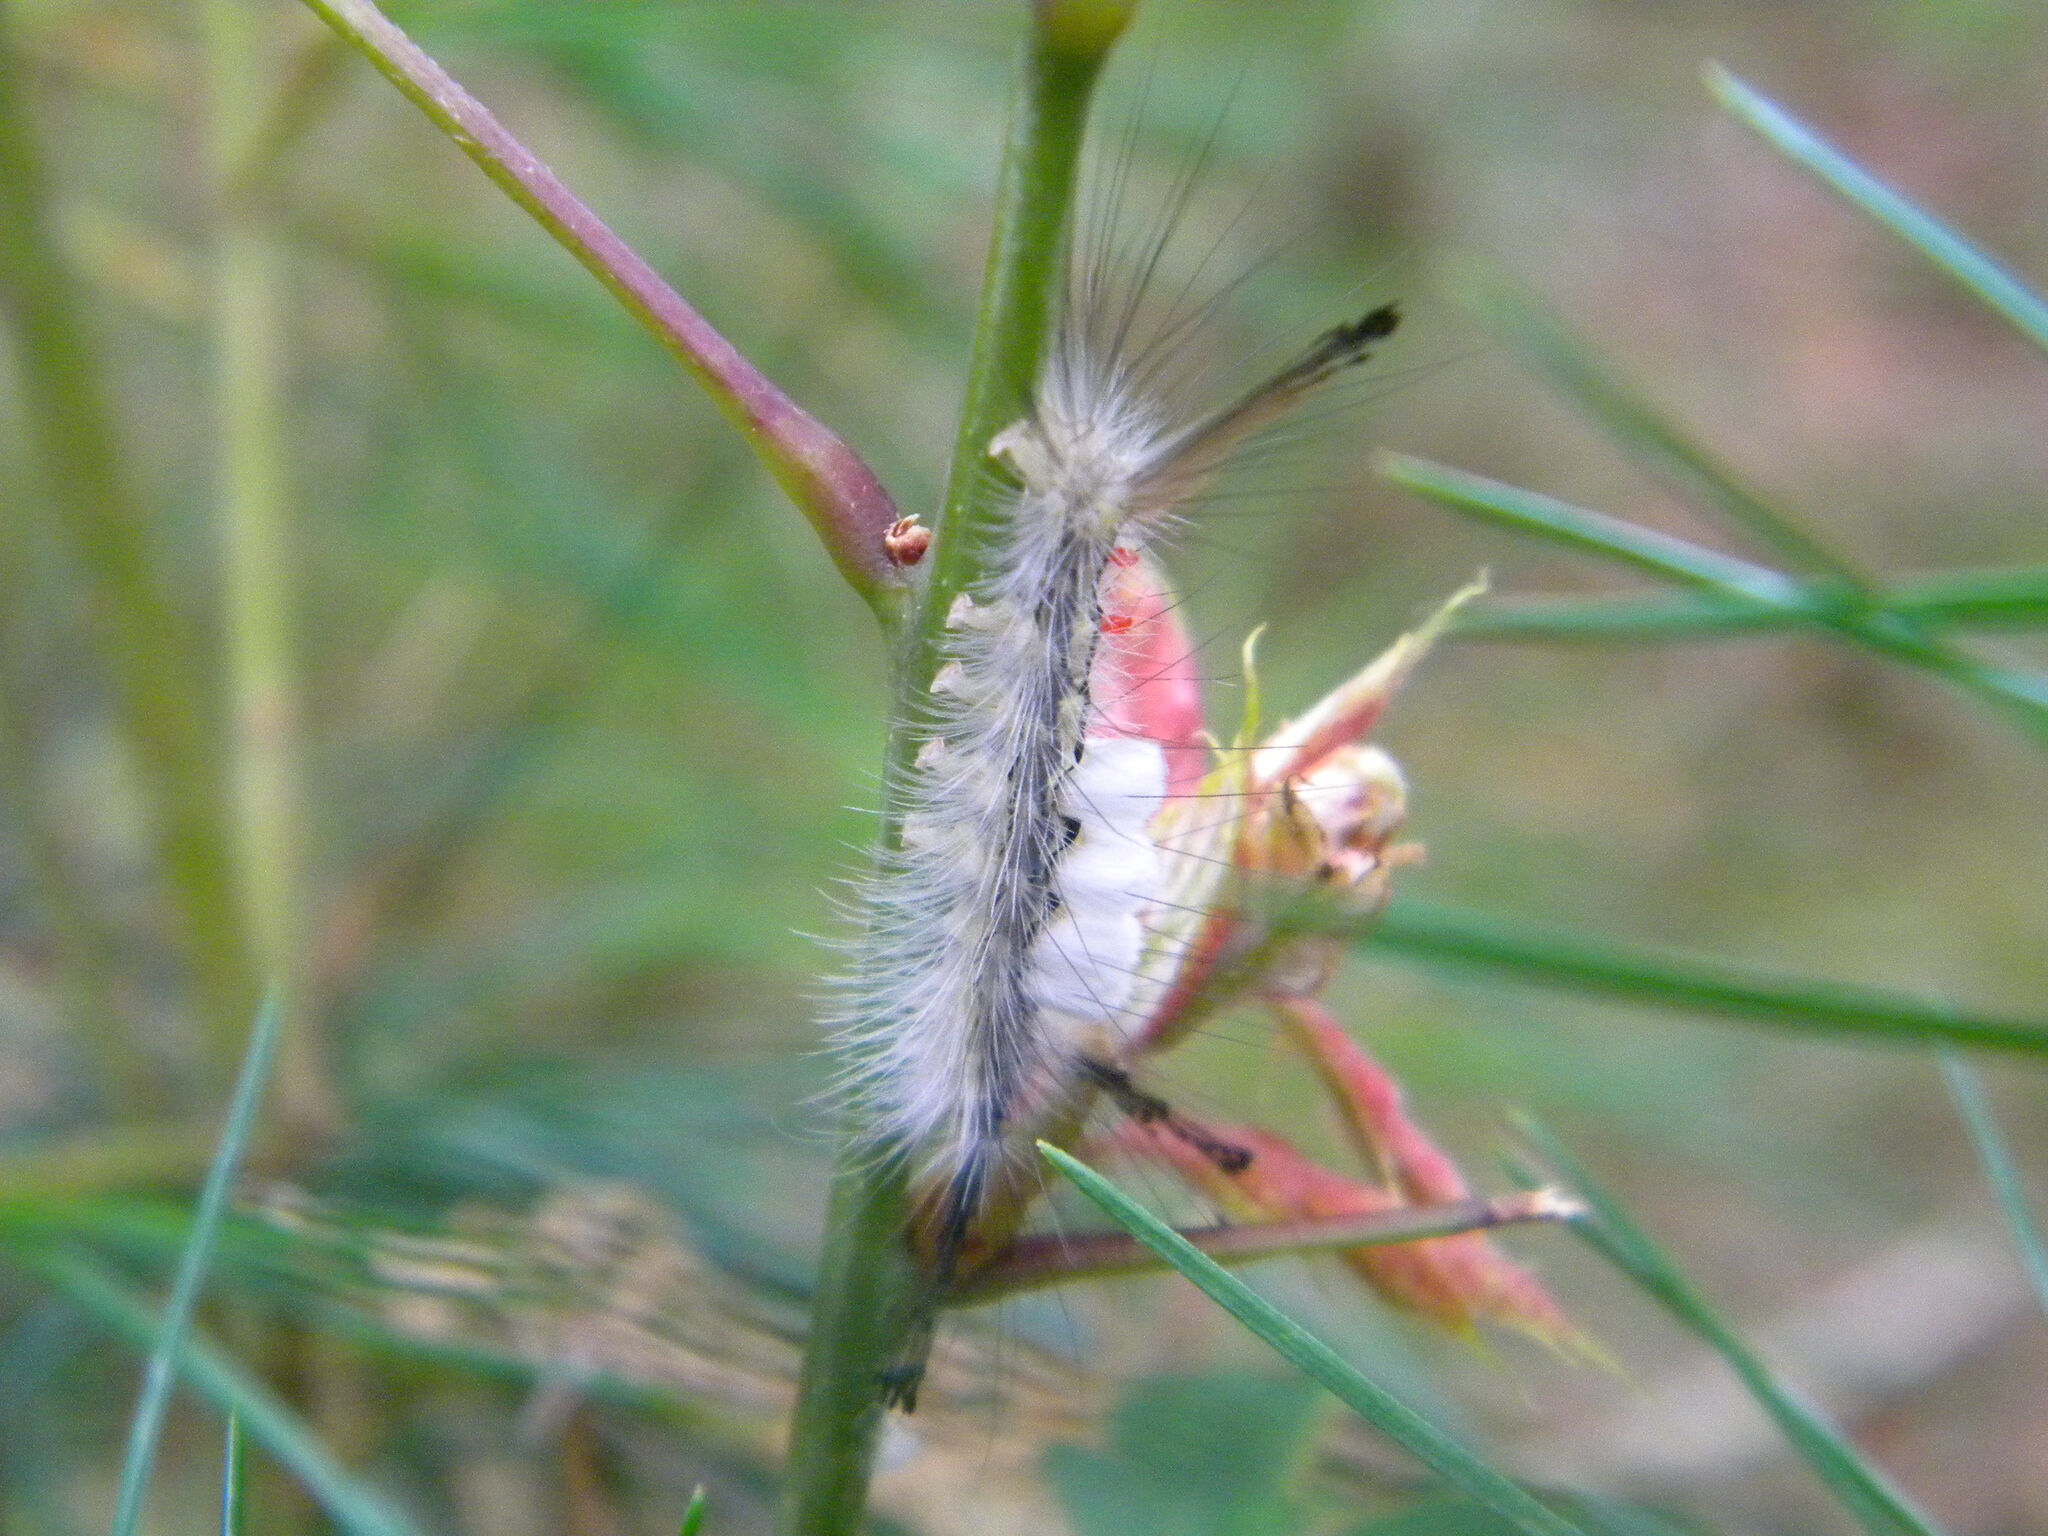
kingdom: Animalia
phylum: Arthropoda
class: Insecta
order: Lepidoptera
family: Erebidae
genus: Orgyia
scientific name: Orgyia leucostigma
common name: White-marked tussock moth
